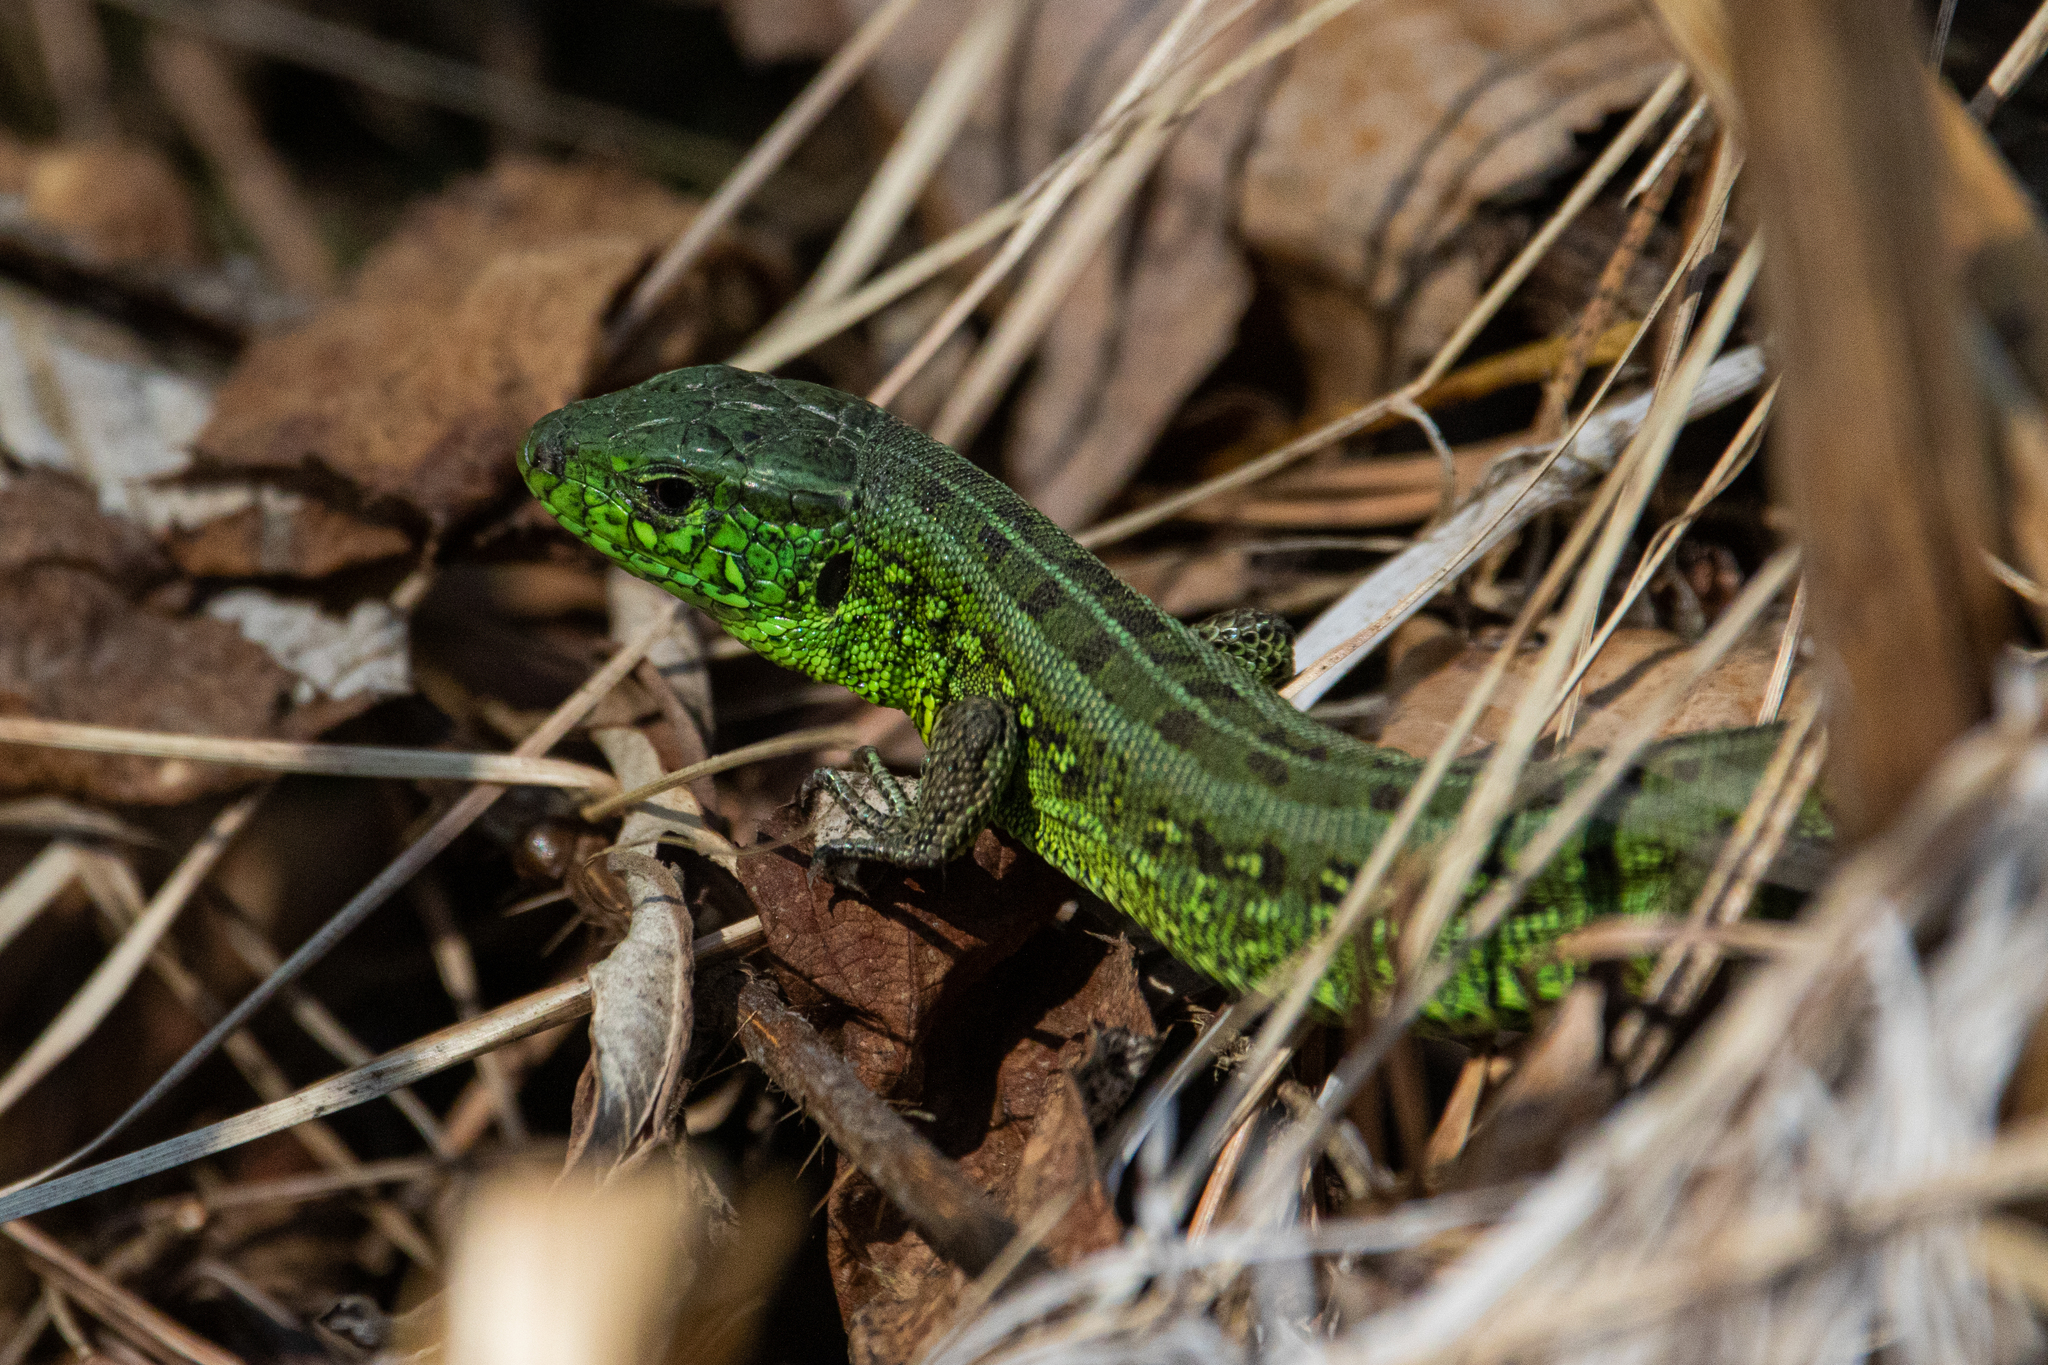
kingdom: Animalia
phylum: Chordata
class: Squamata
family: Lacertidae
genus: Lacerta
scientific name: Lacerta agilis
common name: Sand lizard
